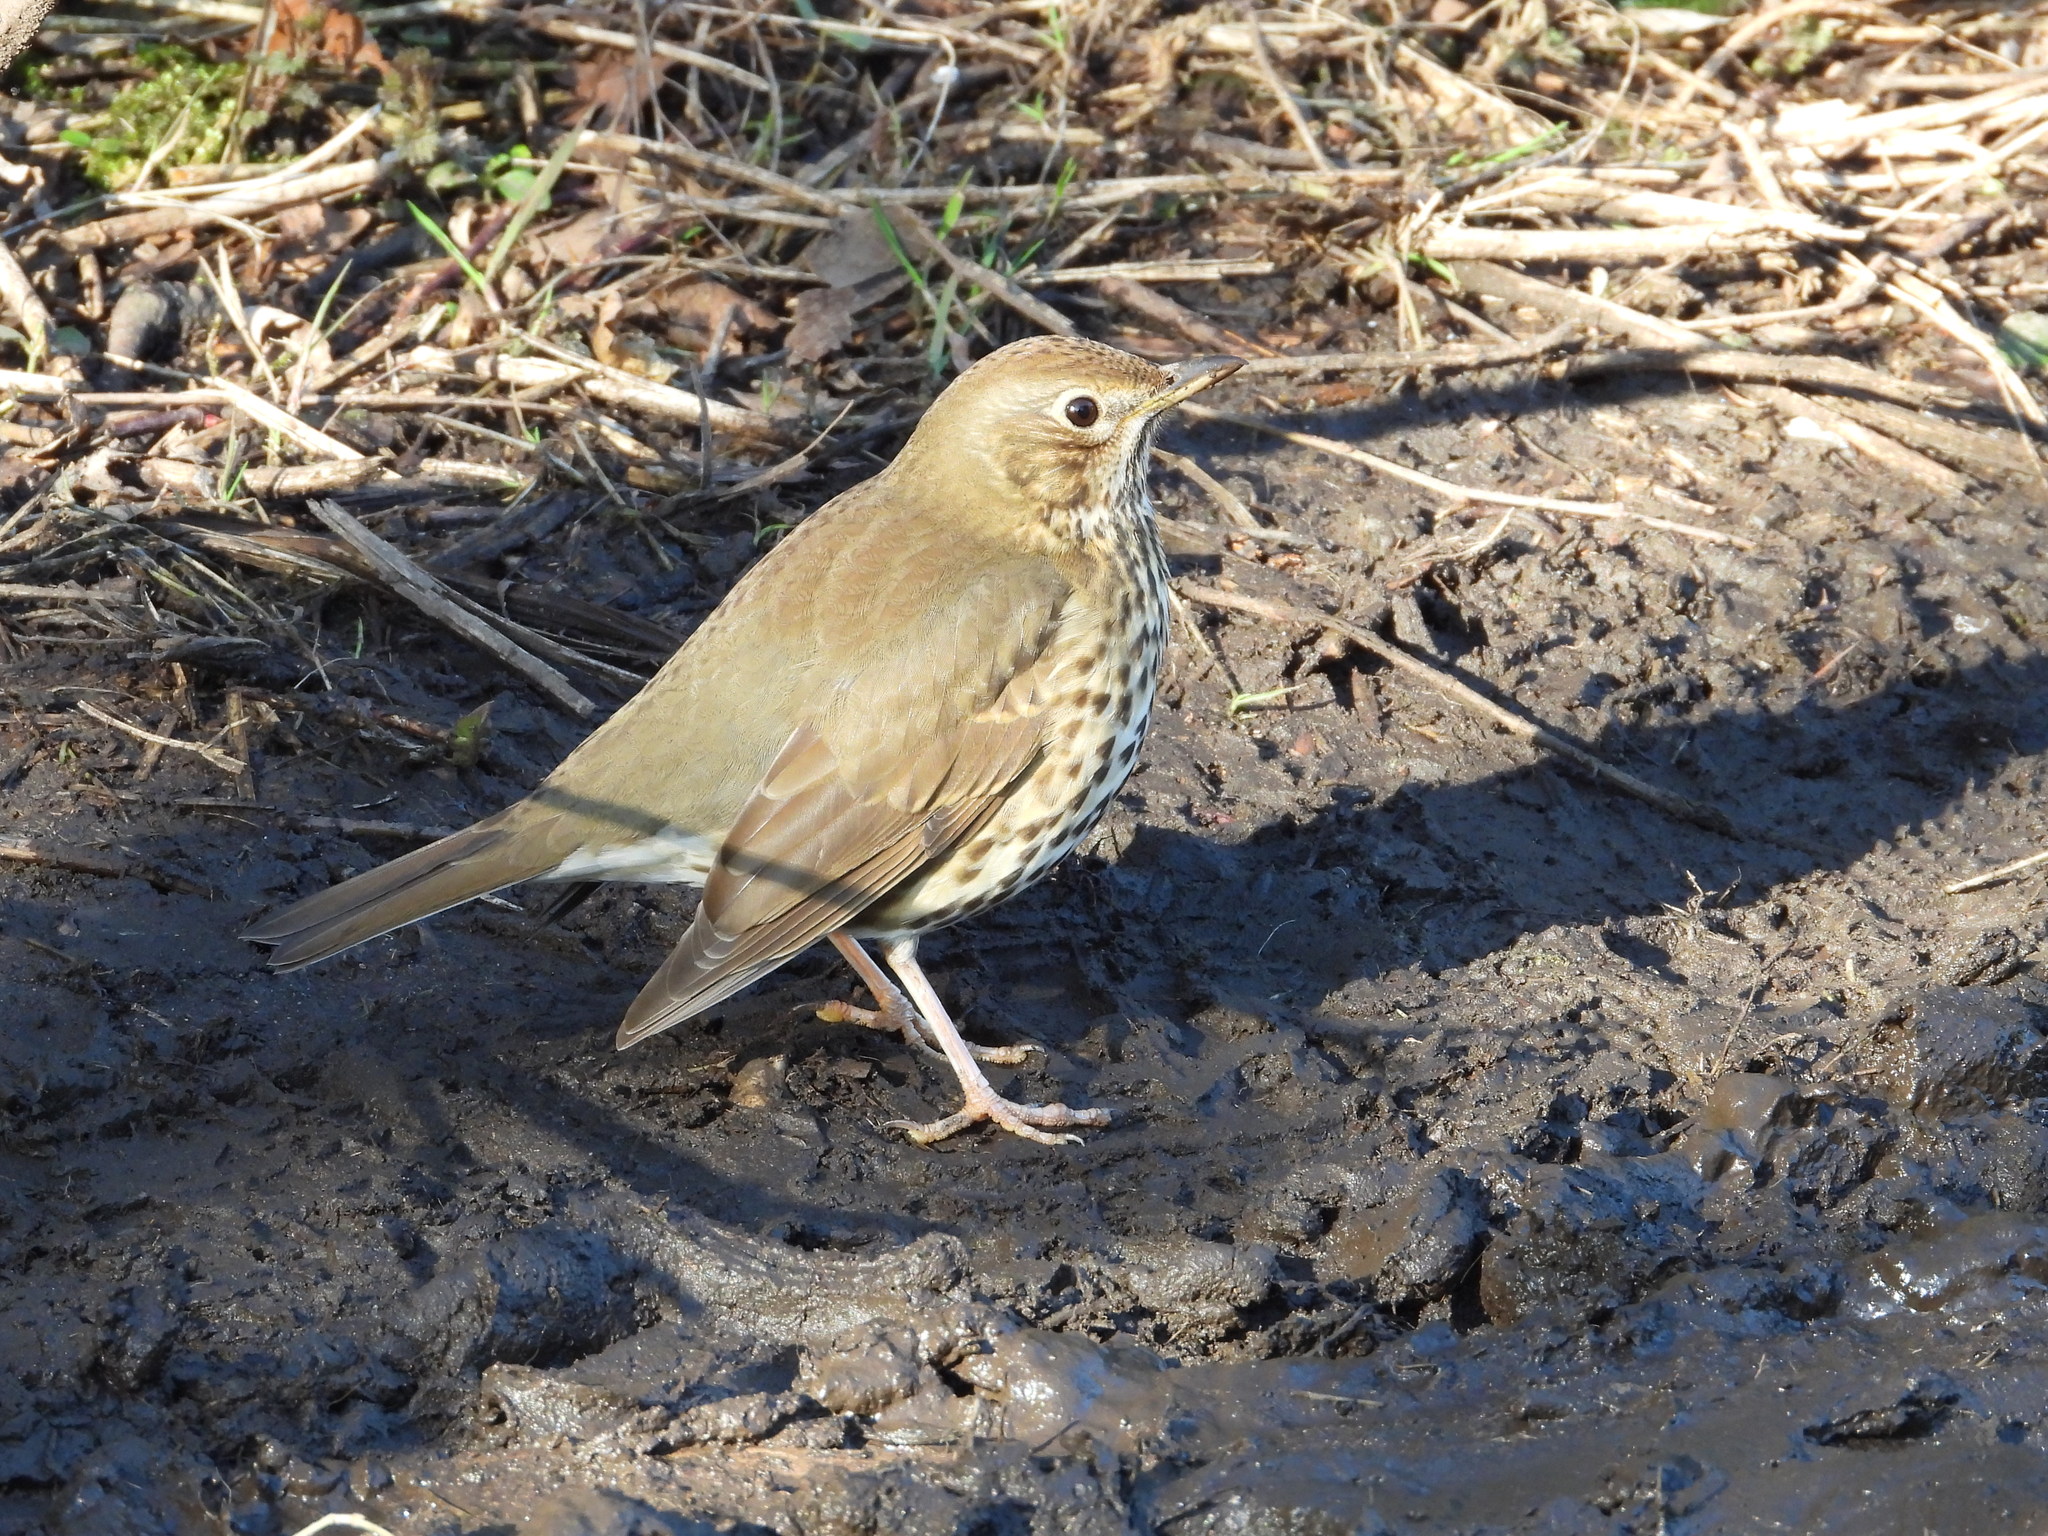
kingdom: Animalia
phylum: Chordata
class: Aves
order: Passeriformes
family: Turdidae
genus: Turdus
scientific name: Turdus philomelos
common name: Song thrush
